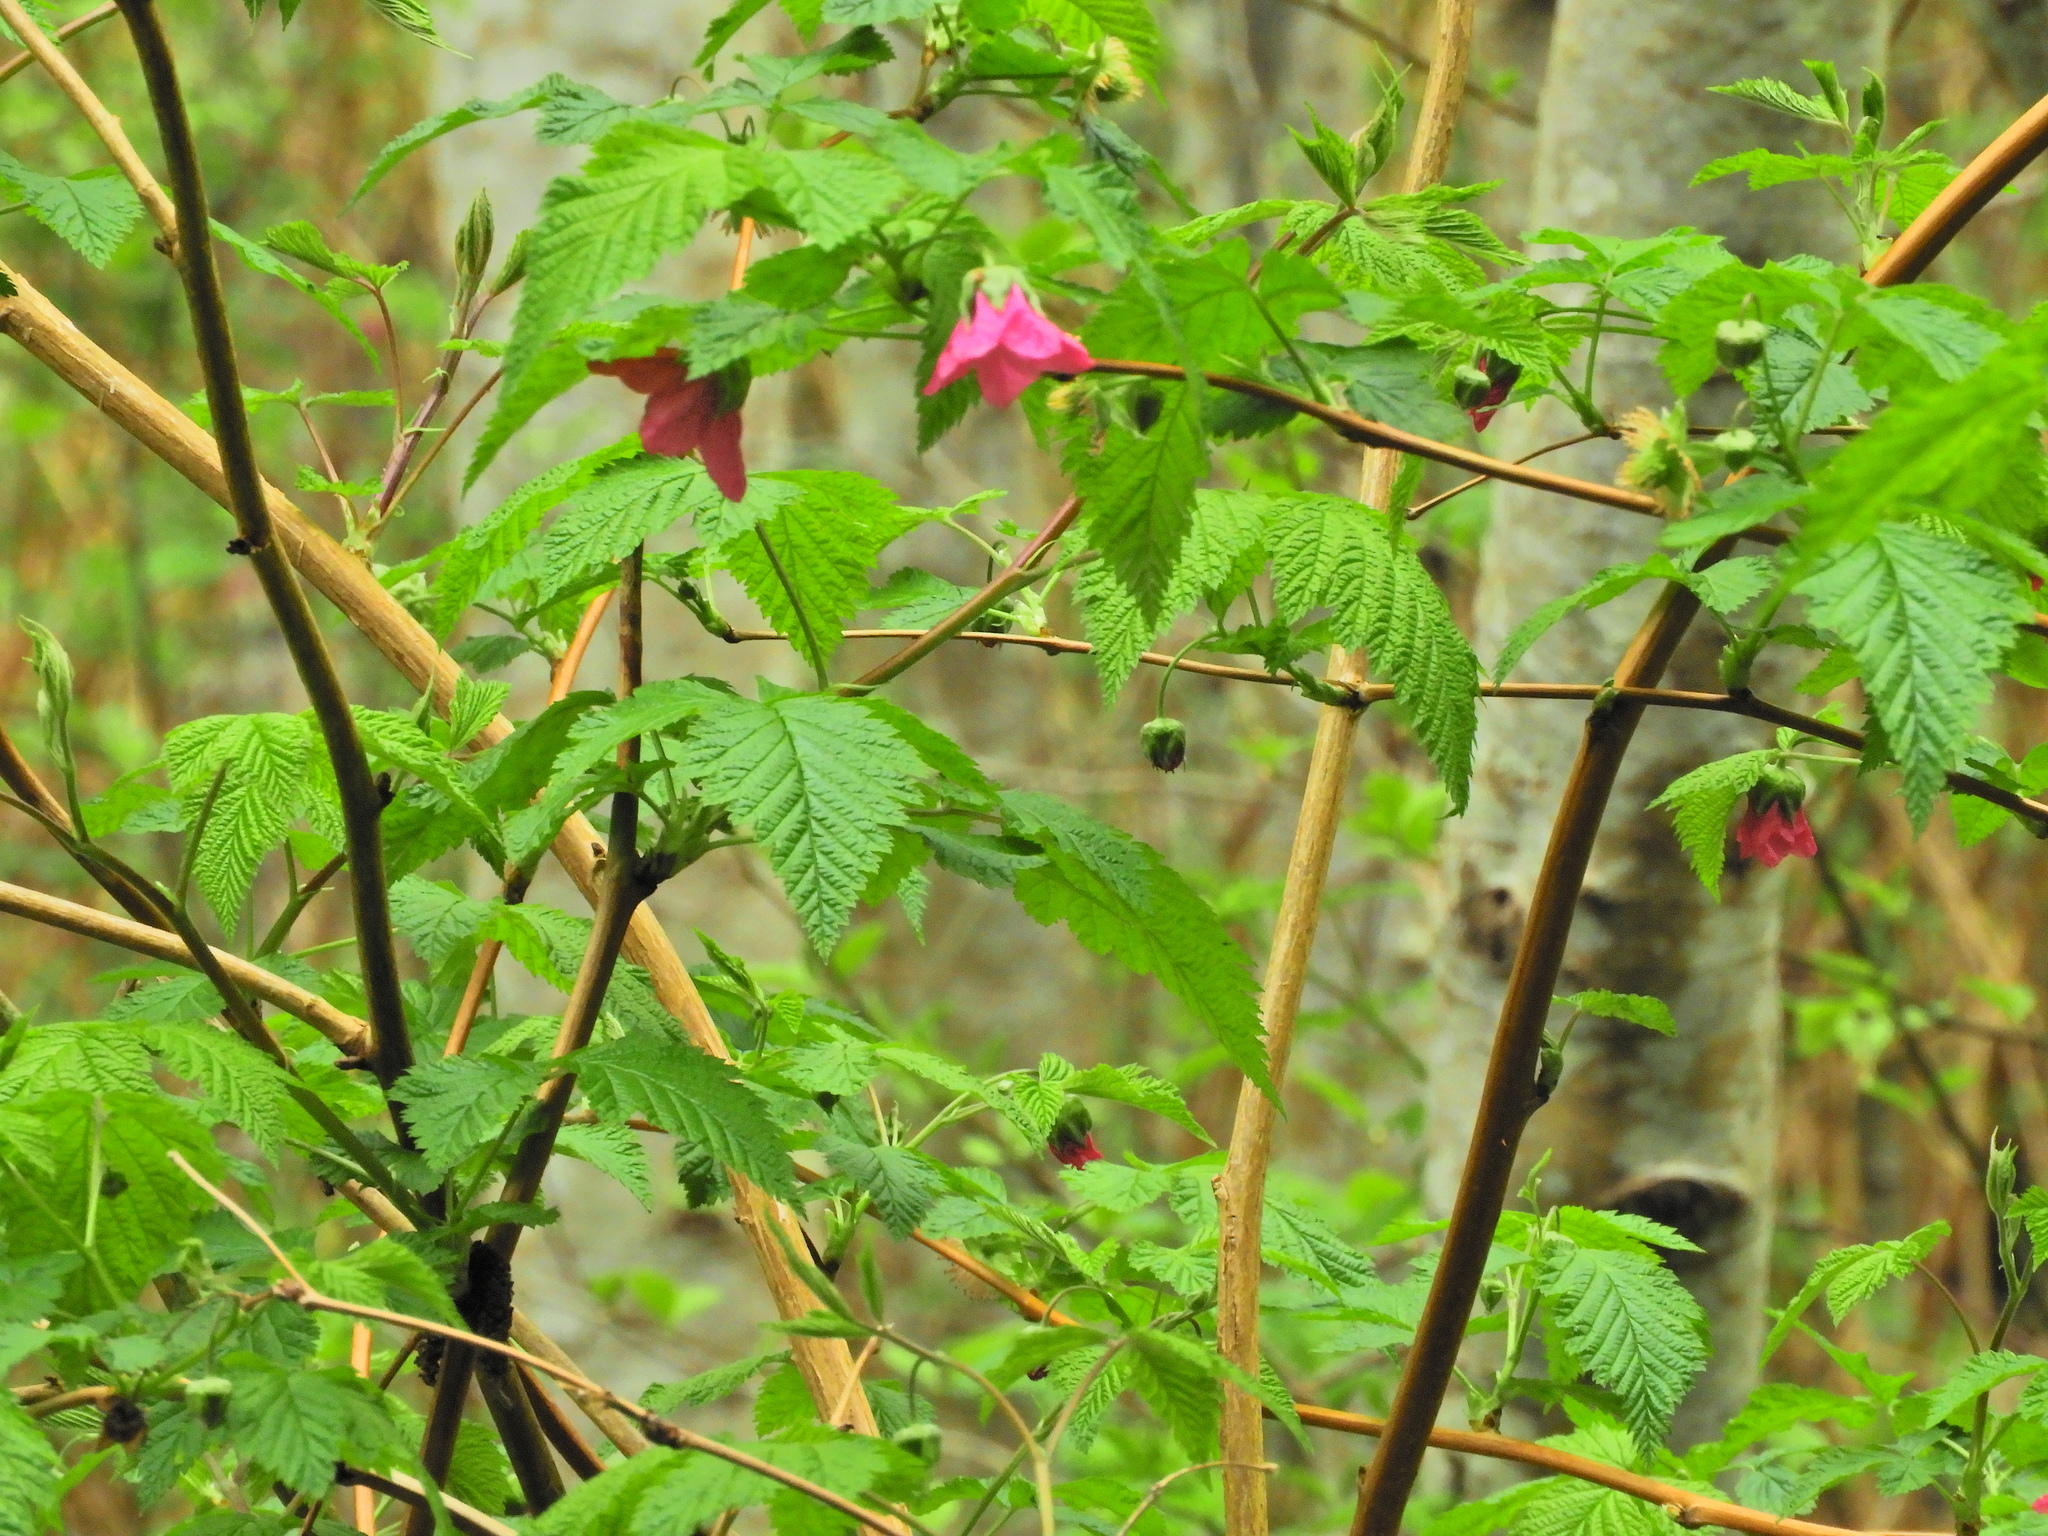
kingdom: Plantae
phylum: Tracheophyta
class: Magnoliopsida
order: Rosales
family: Rosaceae
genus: Rubus
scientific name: Rubus spectabilis
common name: Salmonberry
